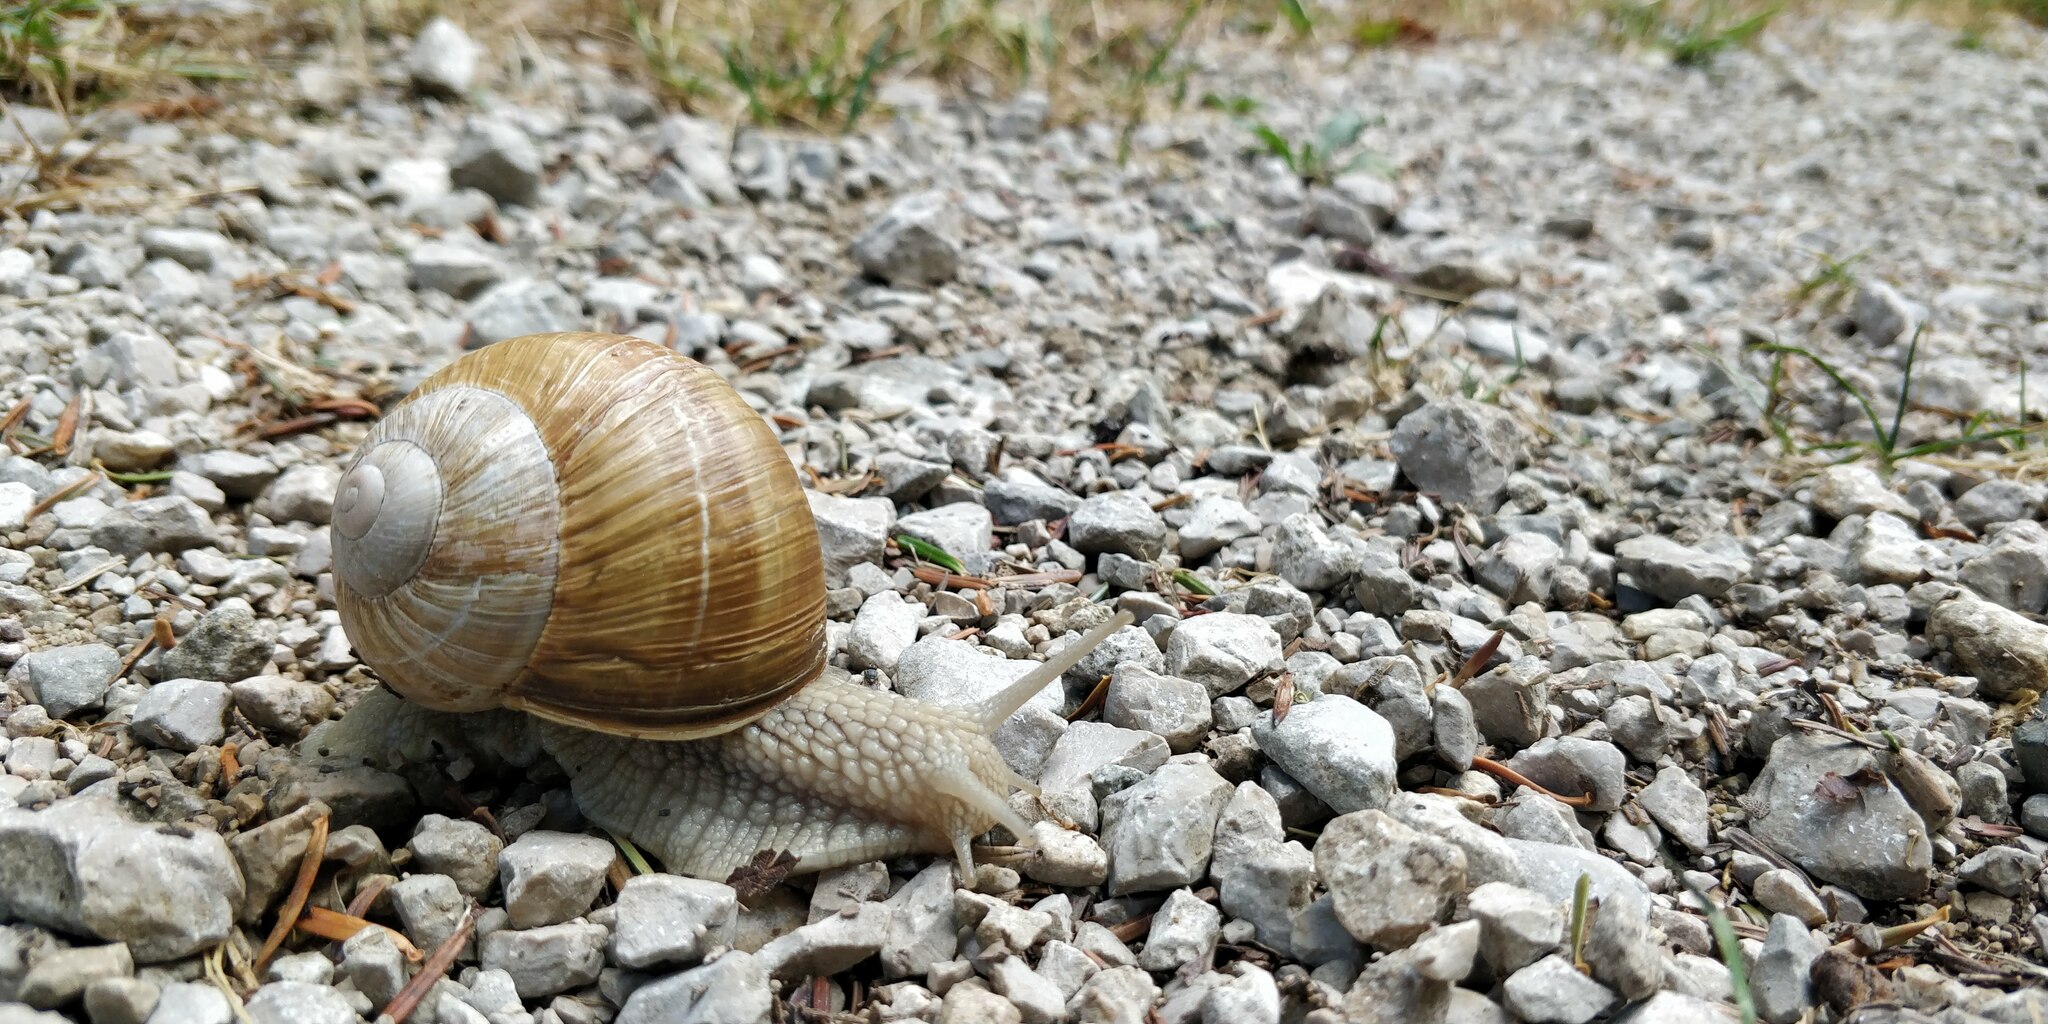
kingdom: Animalia
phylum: Mollusca
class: Gastropoda
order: Stylommatophora
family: Helicidae
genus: Helix
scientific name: Helix pomatia
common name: Roman snail
